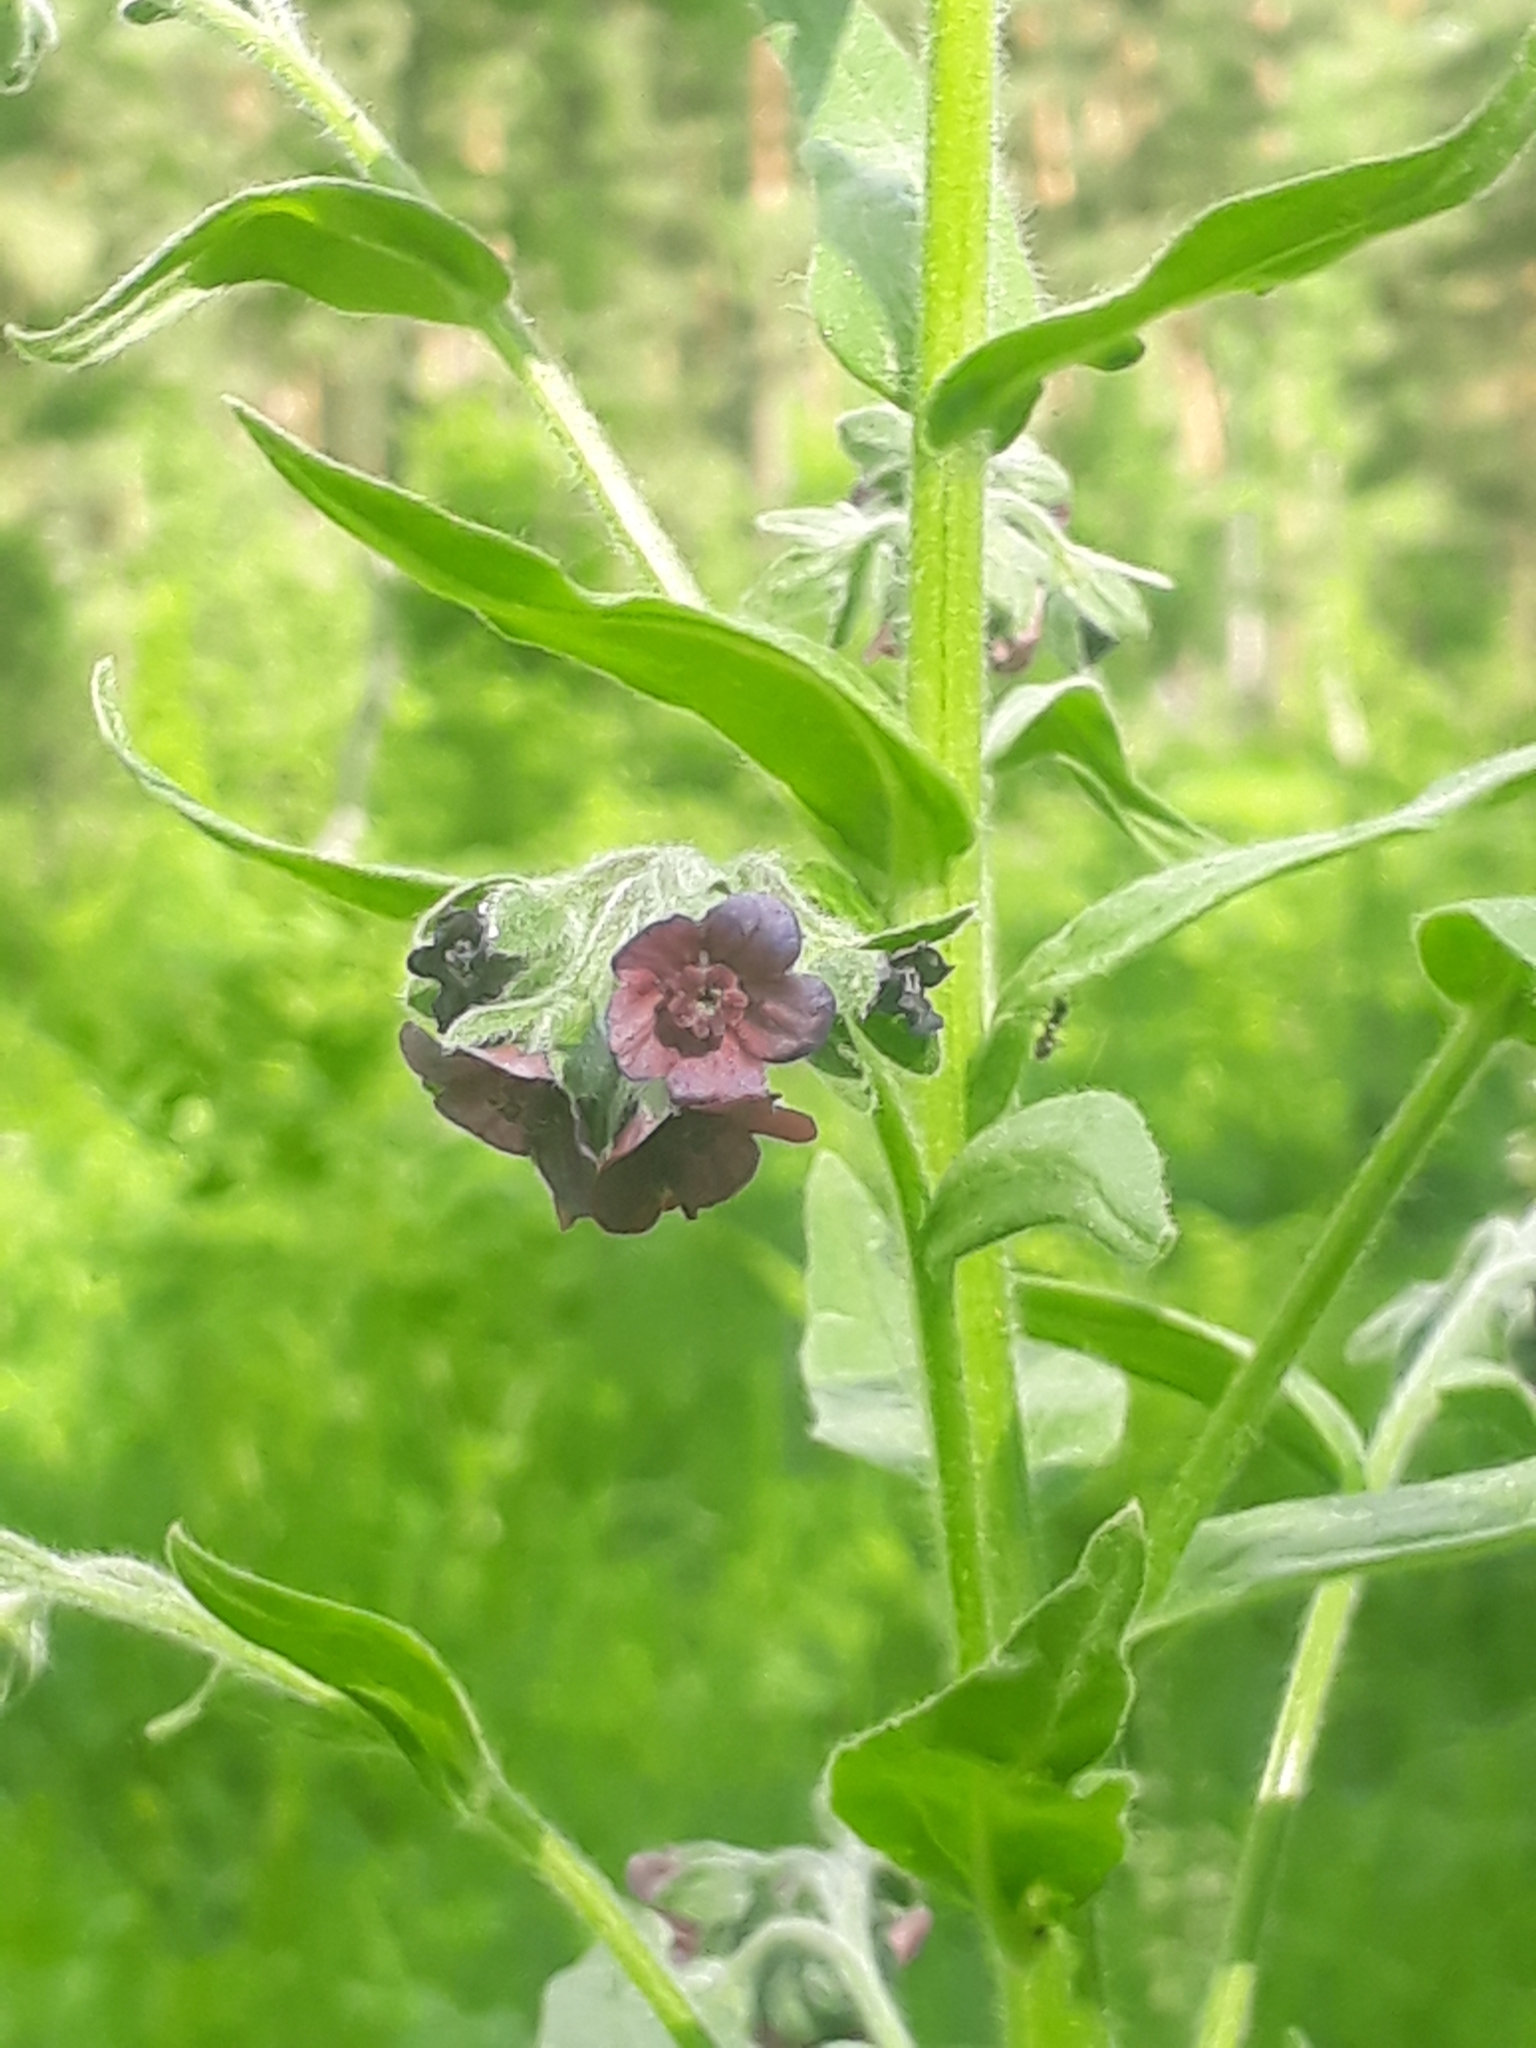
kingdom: Plantae
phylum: Tracheophyta
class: Magnoliopsida
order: Boraginales
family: Boraginaceae
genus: Cynoglossum
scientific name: Cynoglossum officinale
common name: Hound's-tongue
